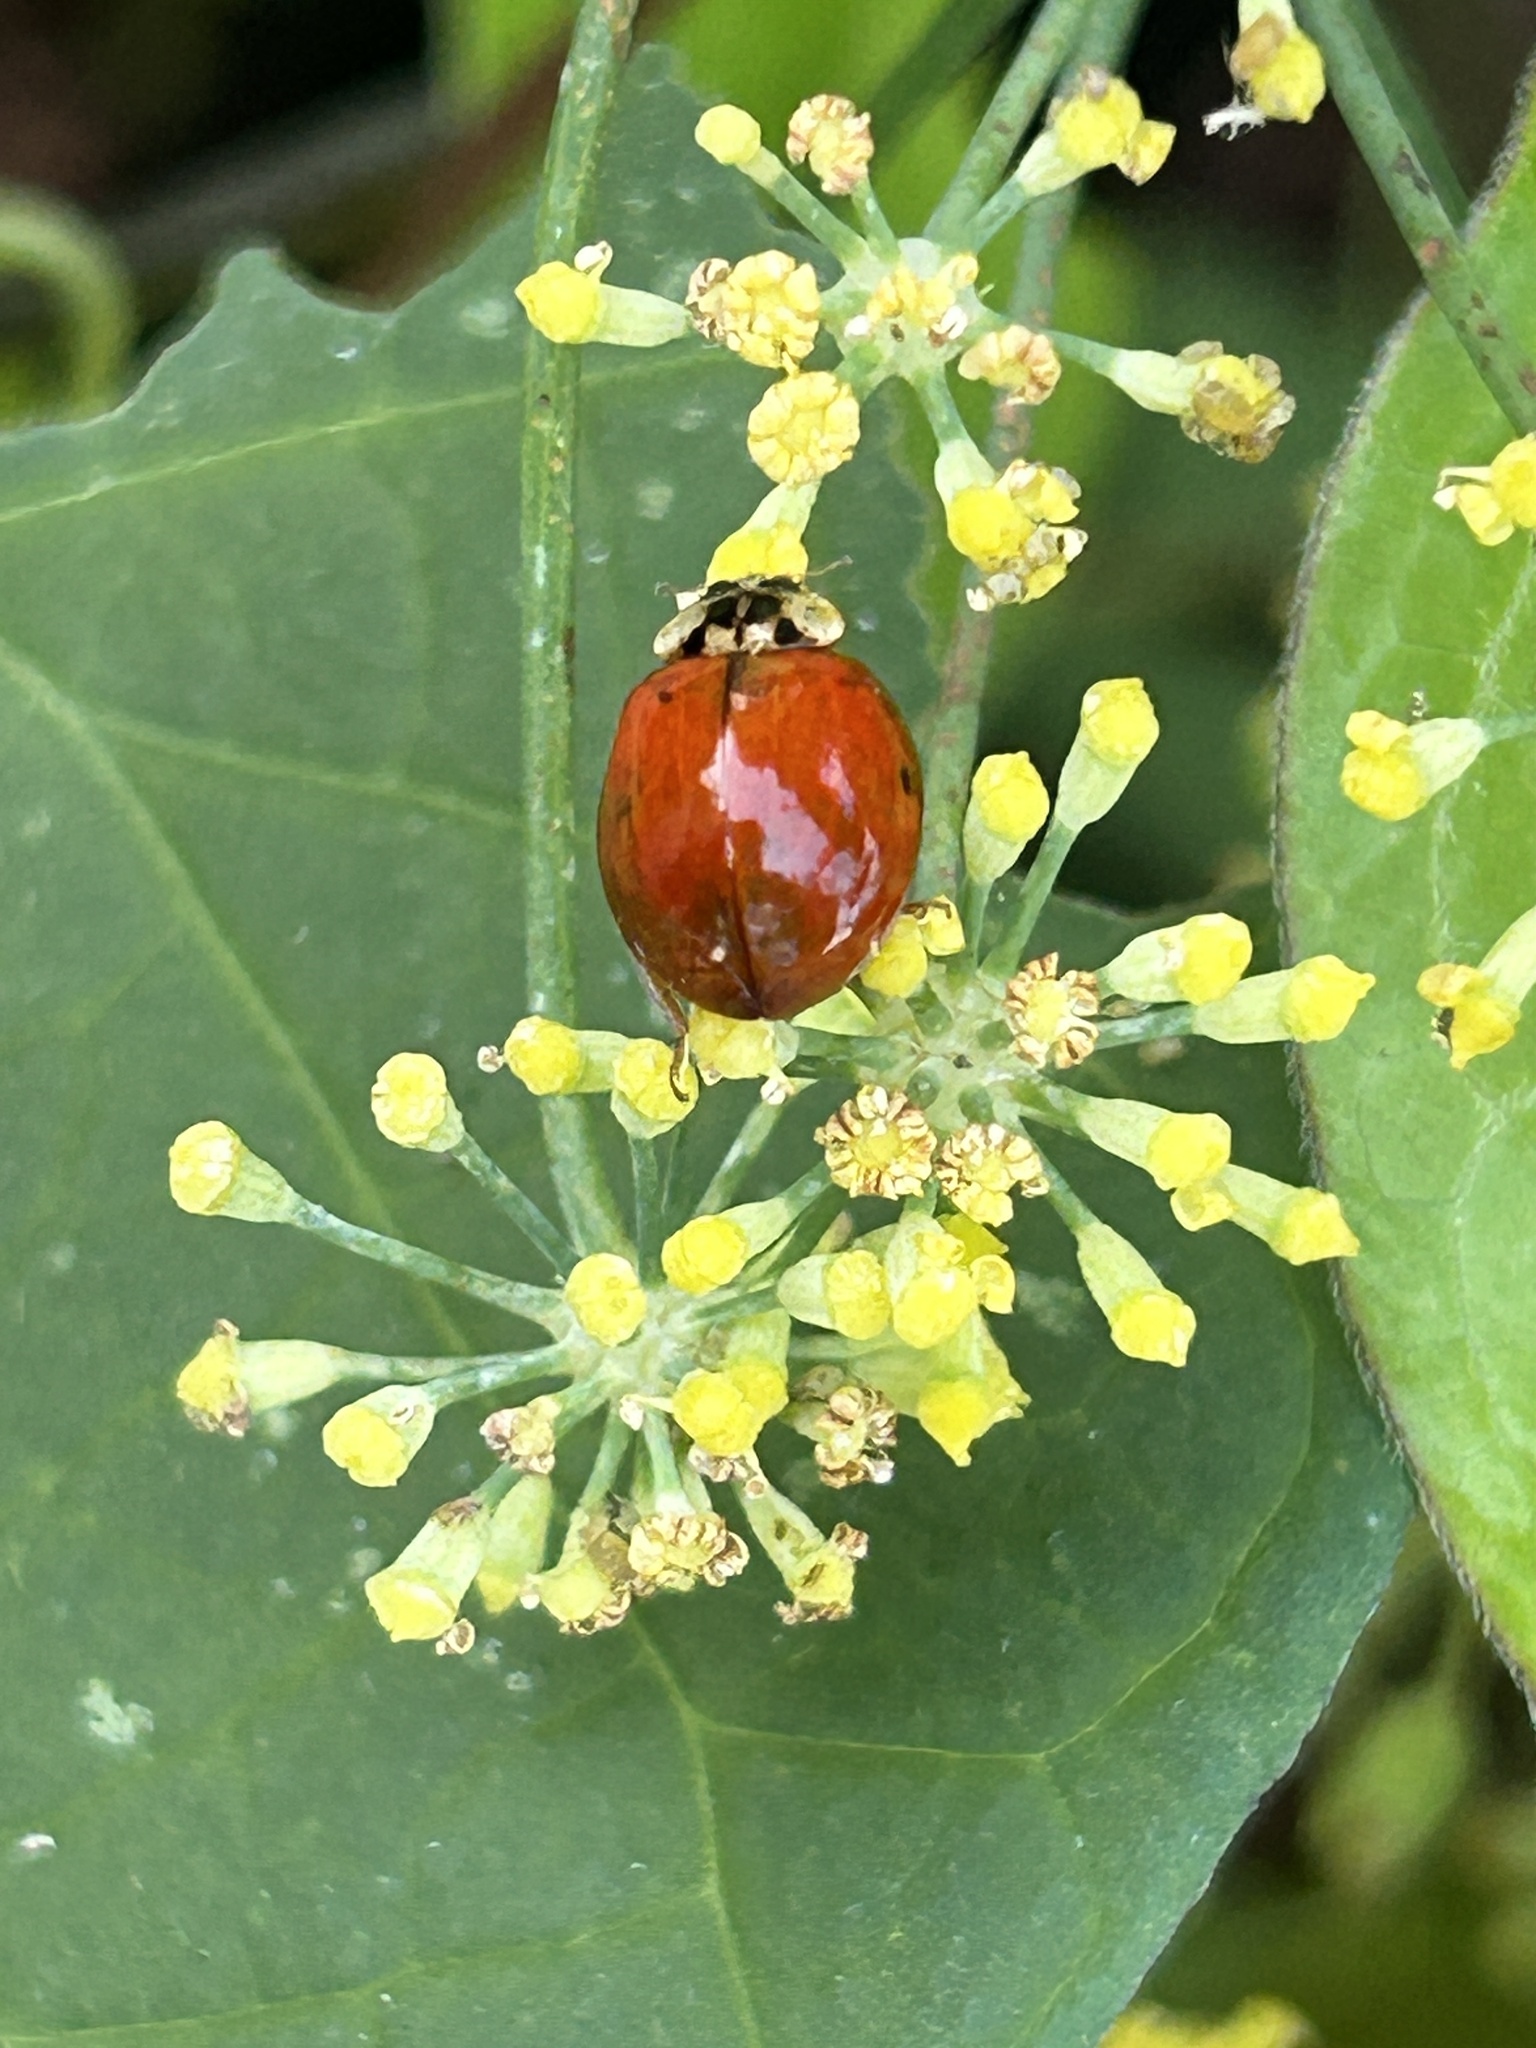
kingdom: Animalia
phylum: Arthropoda
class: Insecta
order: Coleoptera
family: Coccinellidae
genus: Harmonia
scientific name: Harmonia axyridis
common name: Harlequin ladybird
